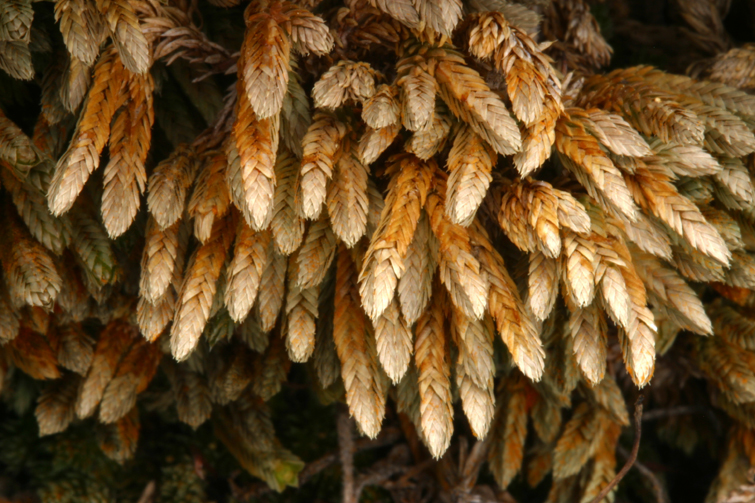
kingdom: Plantae
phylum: Tracheophyta
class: Lycopodiopsida
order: Selaginellales
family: Selaginellaceae
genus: Selaginella
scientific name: Selaginella watsonii
